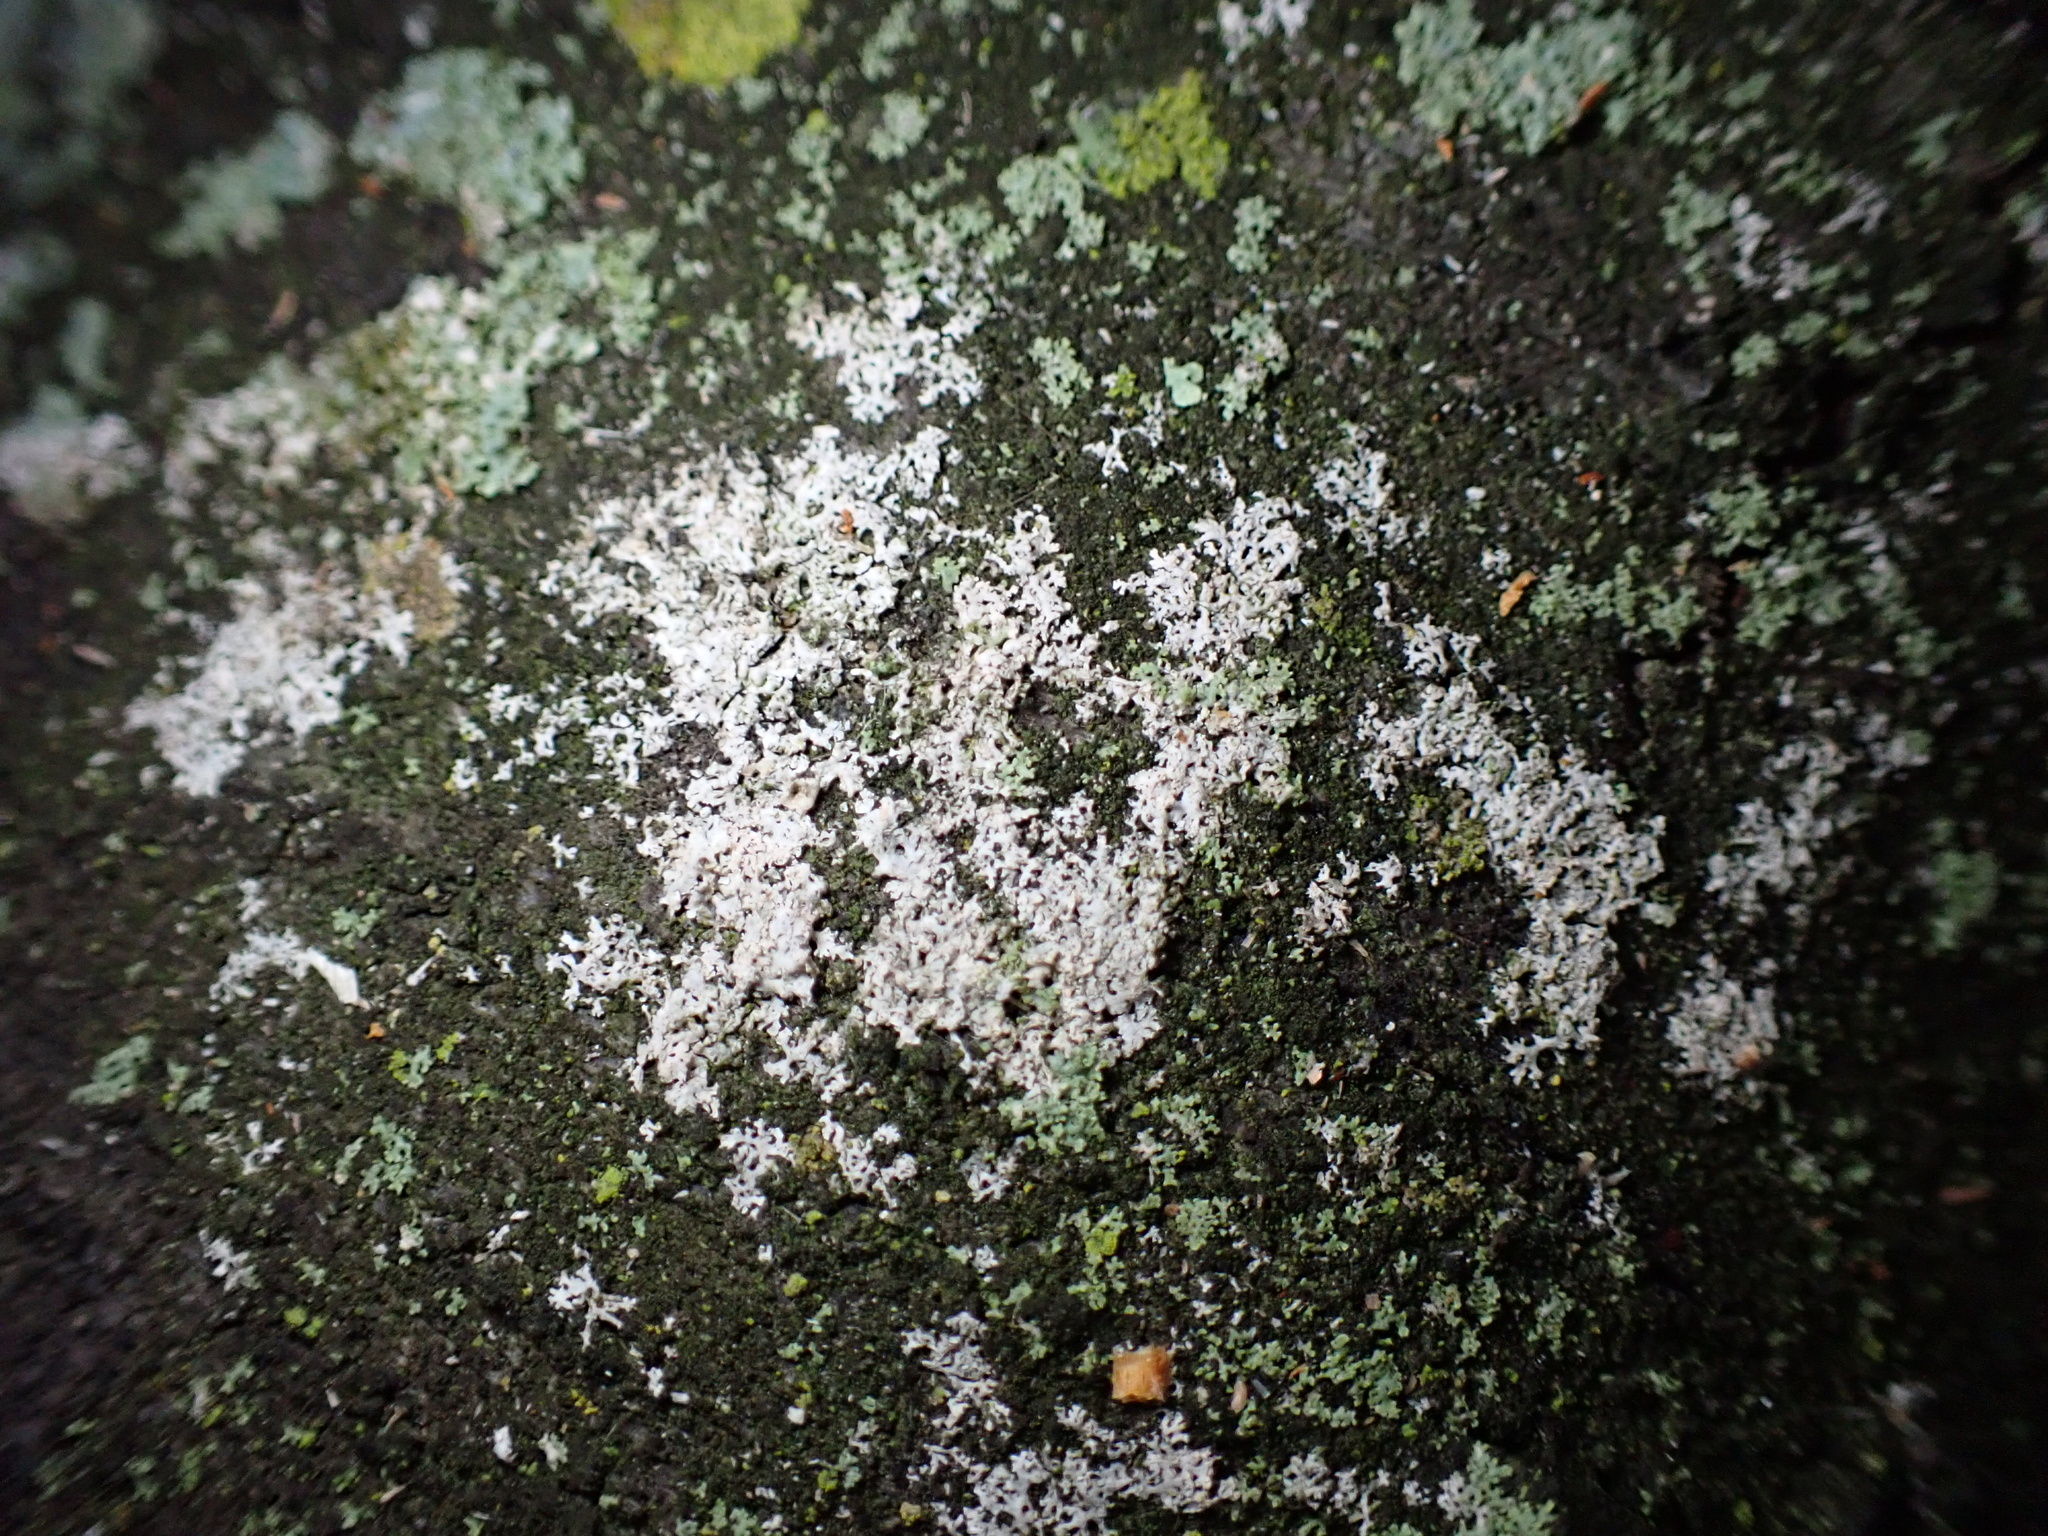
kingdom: Fungi
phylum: Ascomycota
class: Lecanoromycetes
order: Caliciales
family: Physciaceae
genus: Physcia
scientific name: Physcia subtilis
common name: Slender rosette lichen
